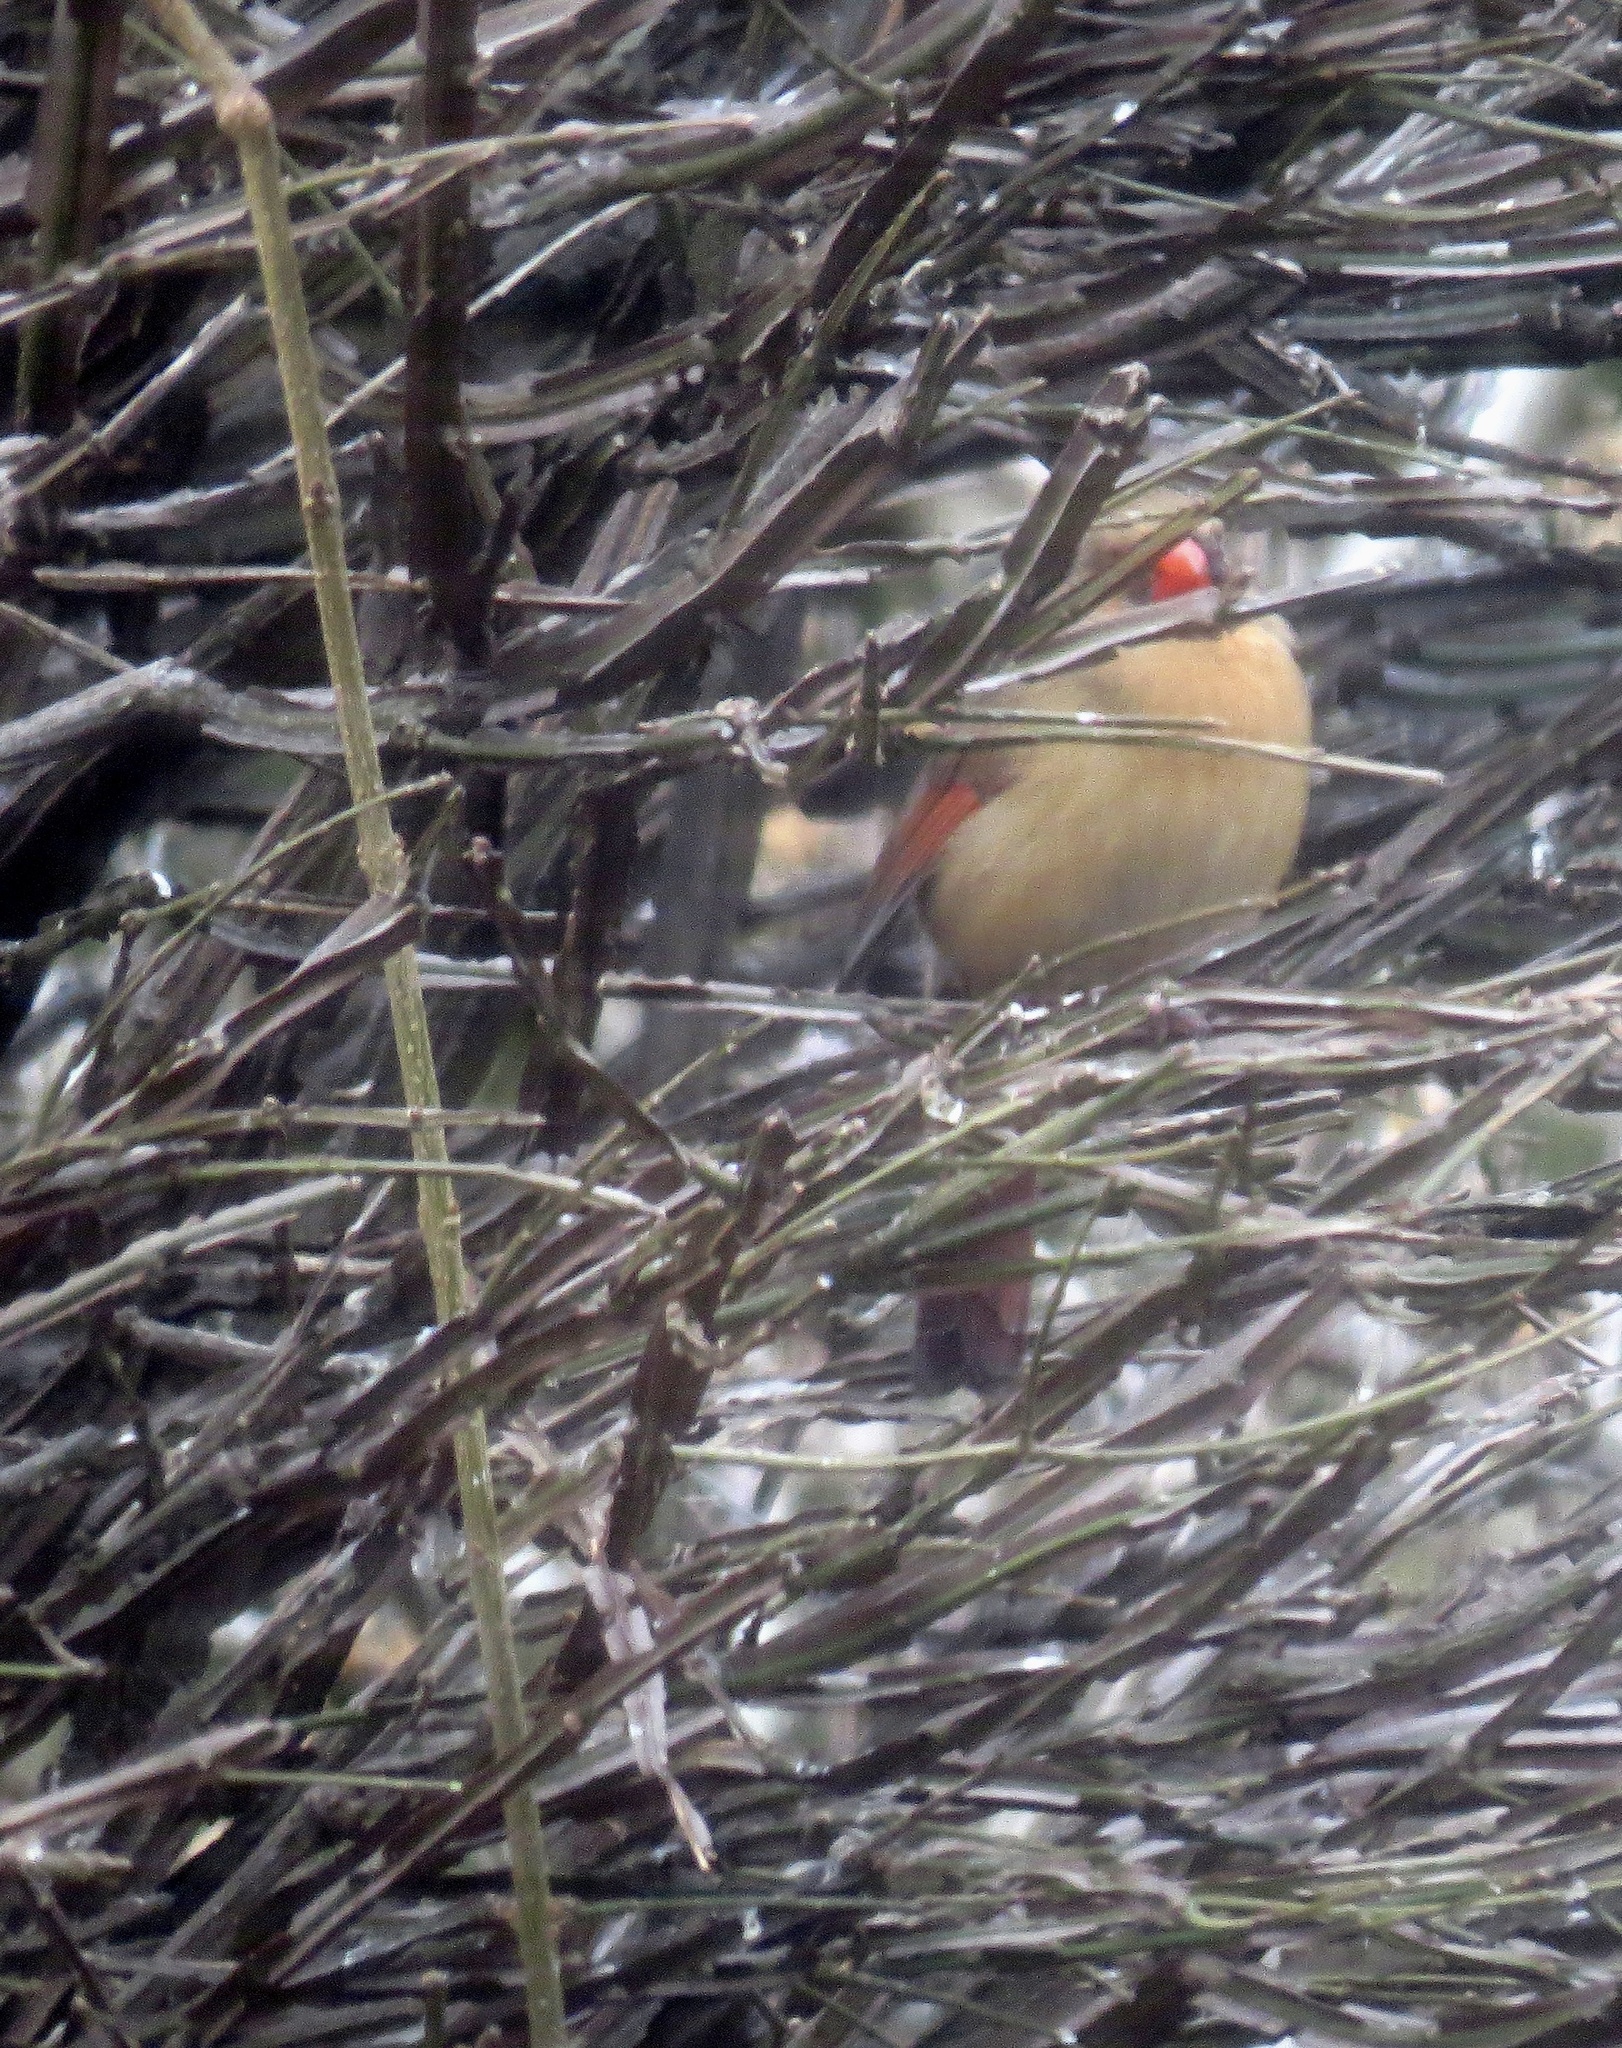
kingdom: Animalia
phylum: Chordata
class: Aves
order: Passeriformes
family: Cardinalidae
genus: Cardinalis
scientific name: Cardinalis cardinalis
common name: Northern cardinal
